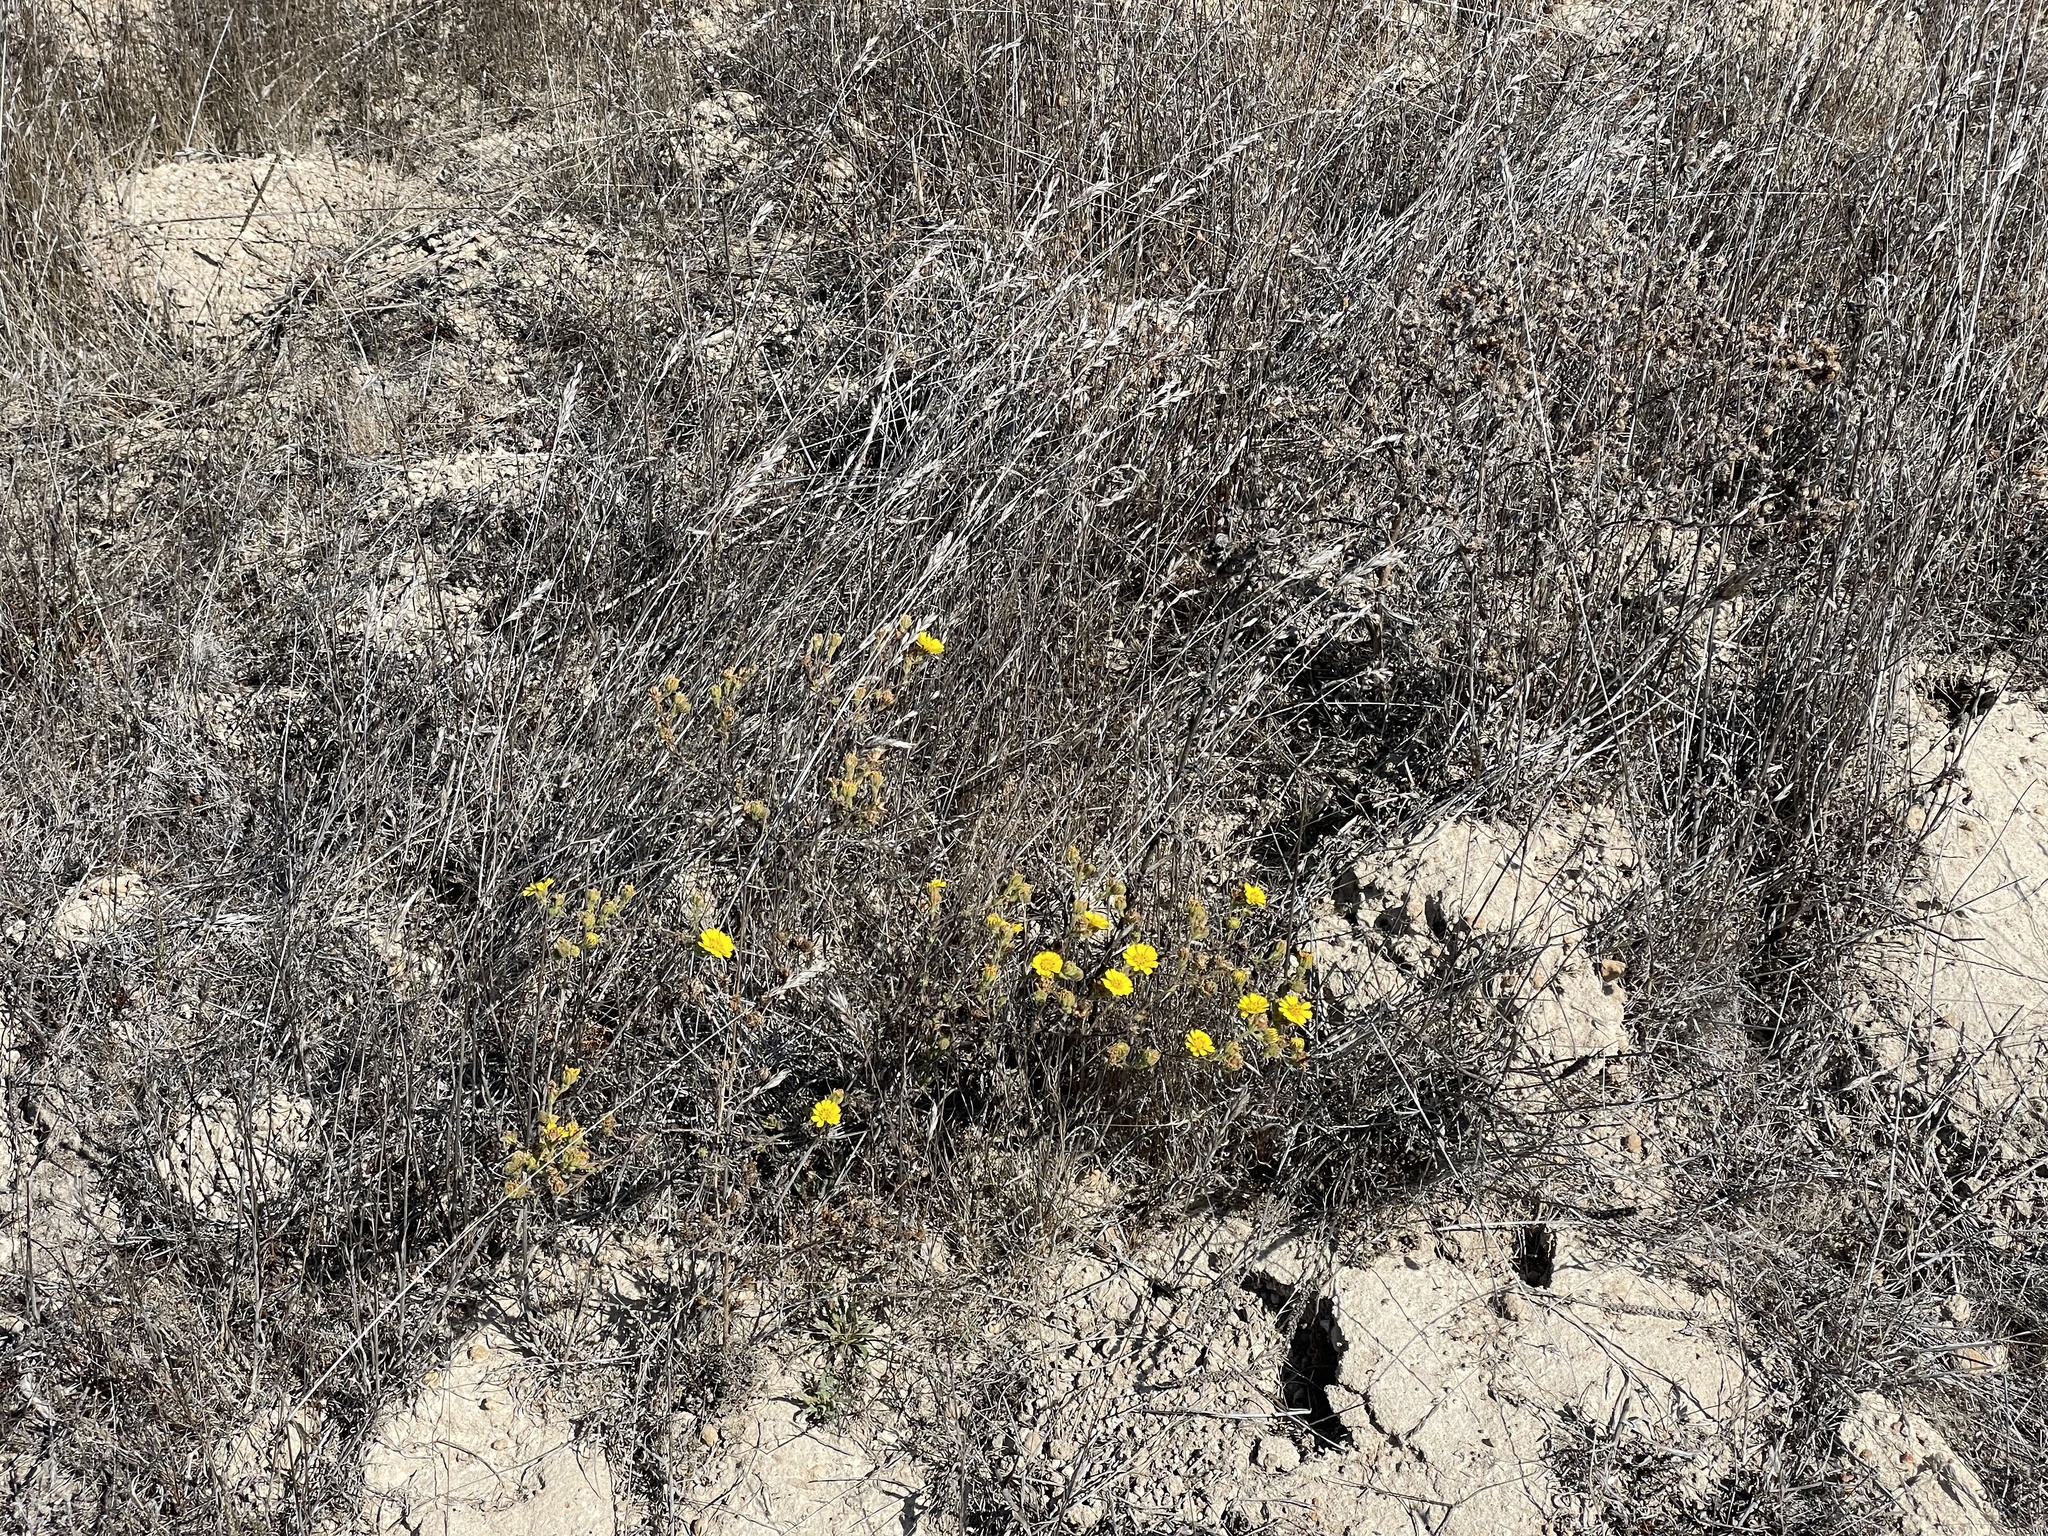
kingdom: Plantae
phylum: Tracheophyta
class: Magnoliopsida
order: Asterales
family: Asteraceae
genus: Deinandra
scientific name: Deinandra corymbosa
